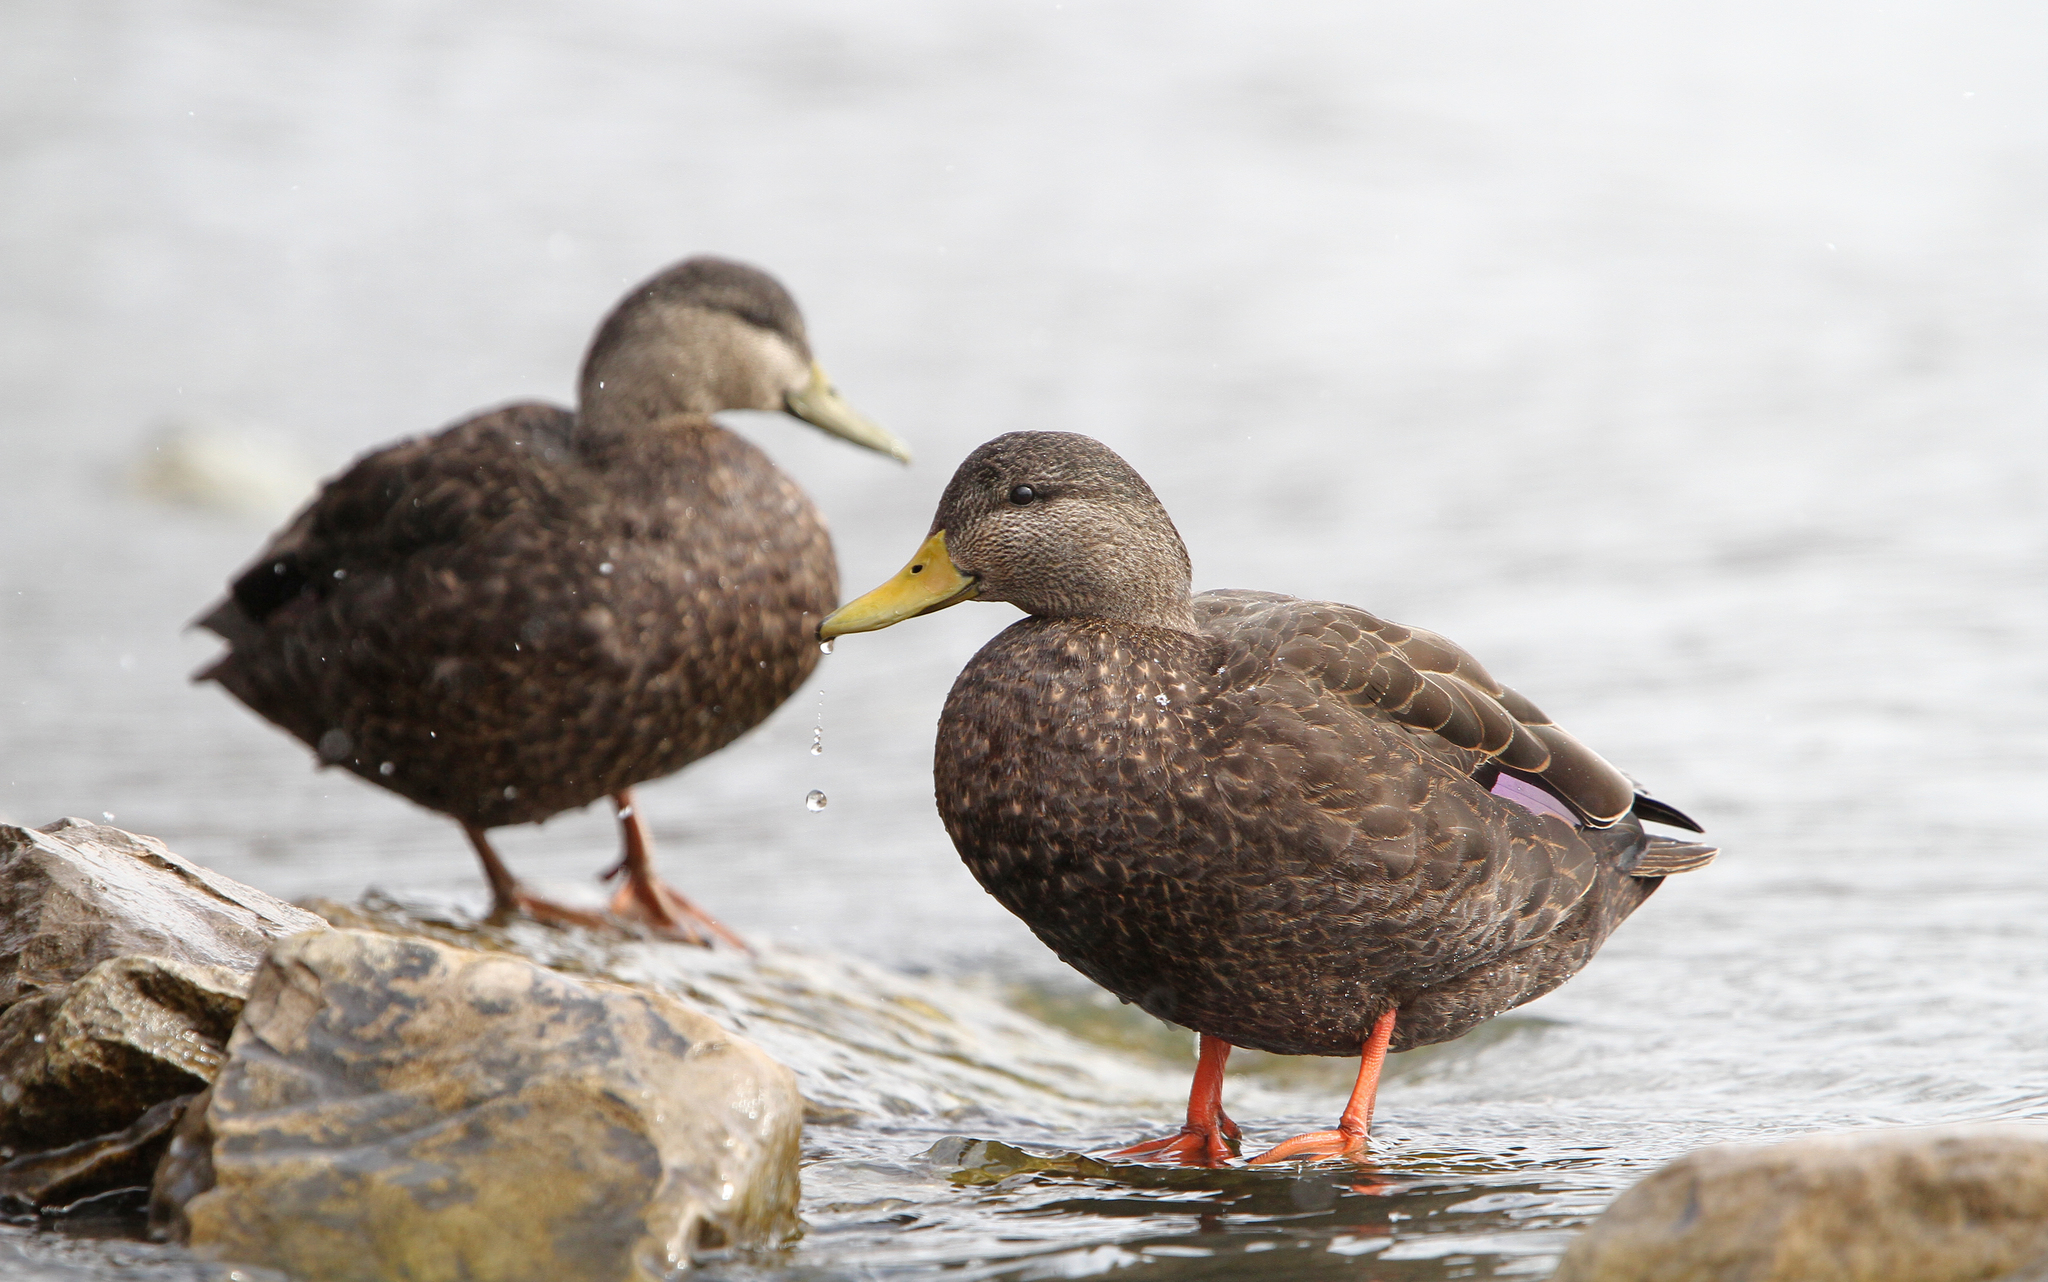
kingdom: Animalia
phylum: Chordata
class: Aves
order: Anseriformes
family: Anatidae
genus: Anas
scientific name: Anas rubripes
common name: American black duck
